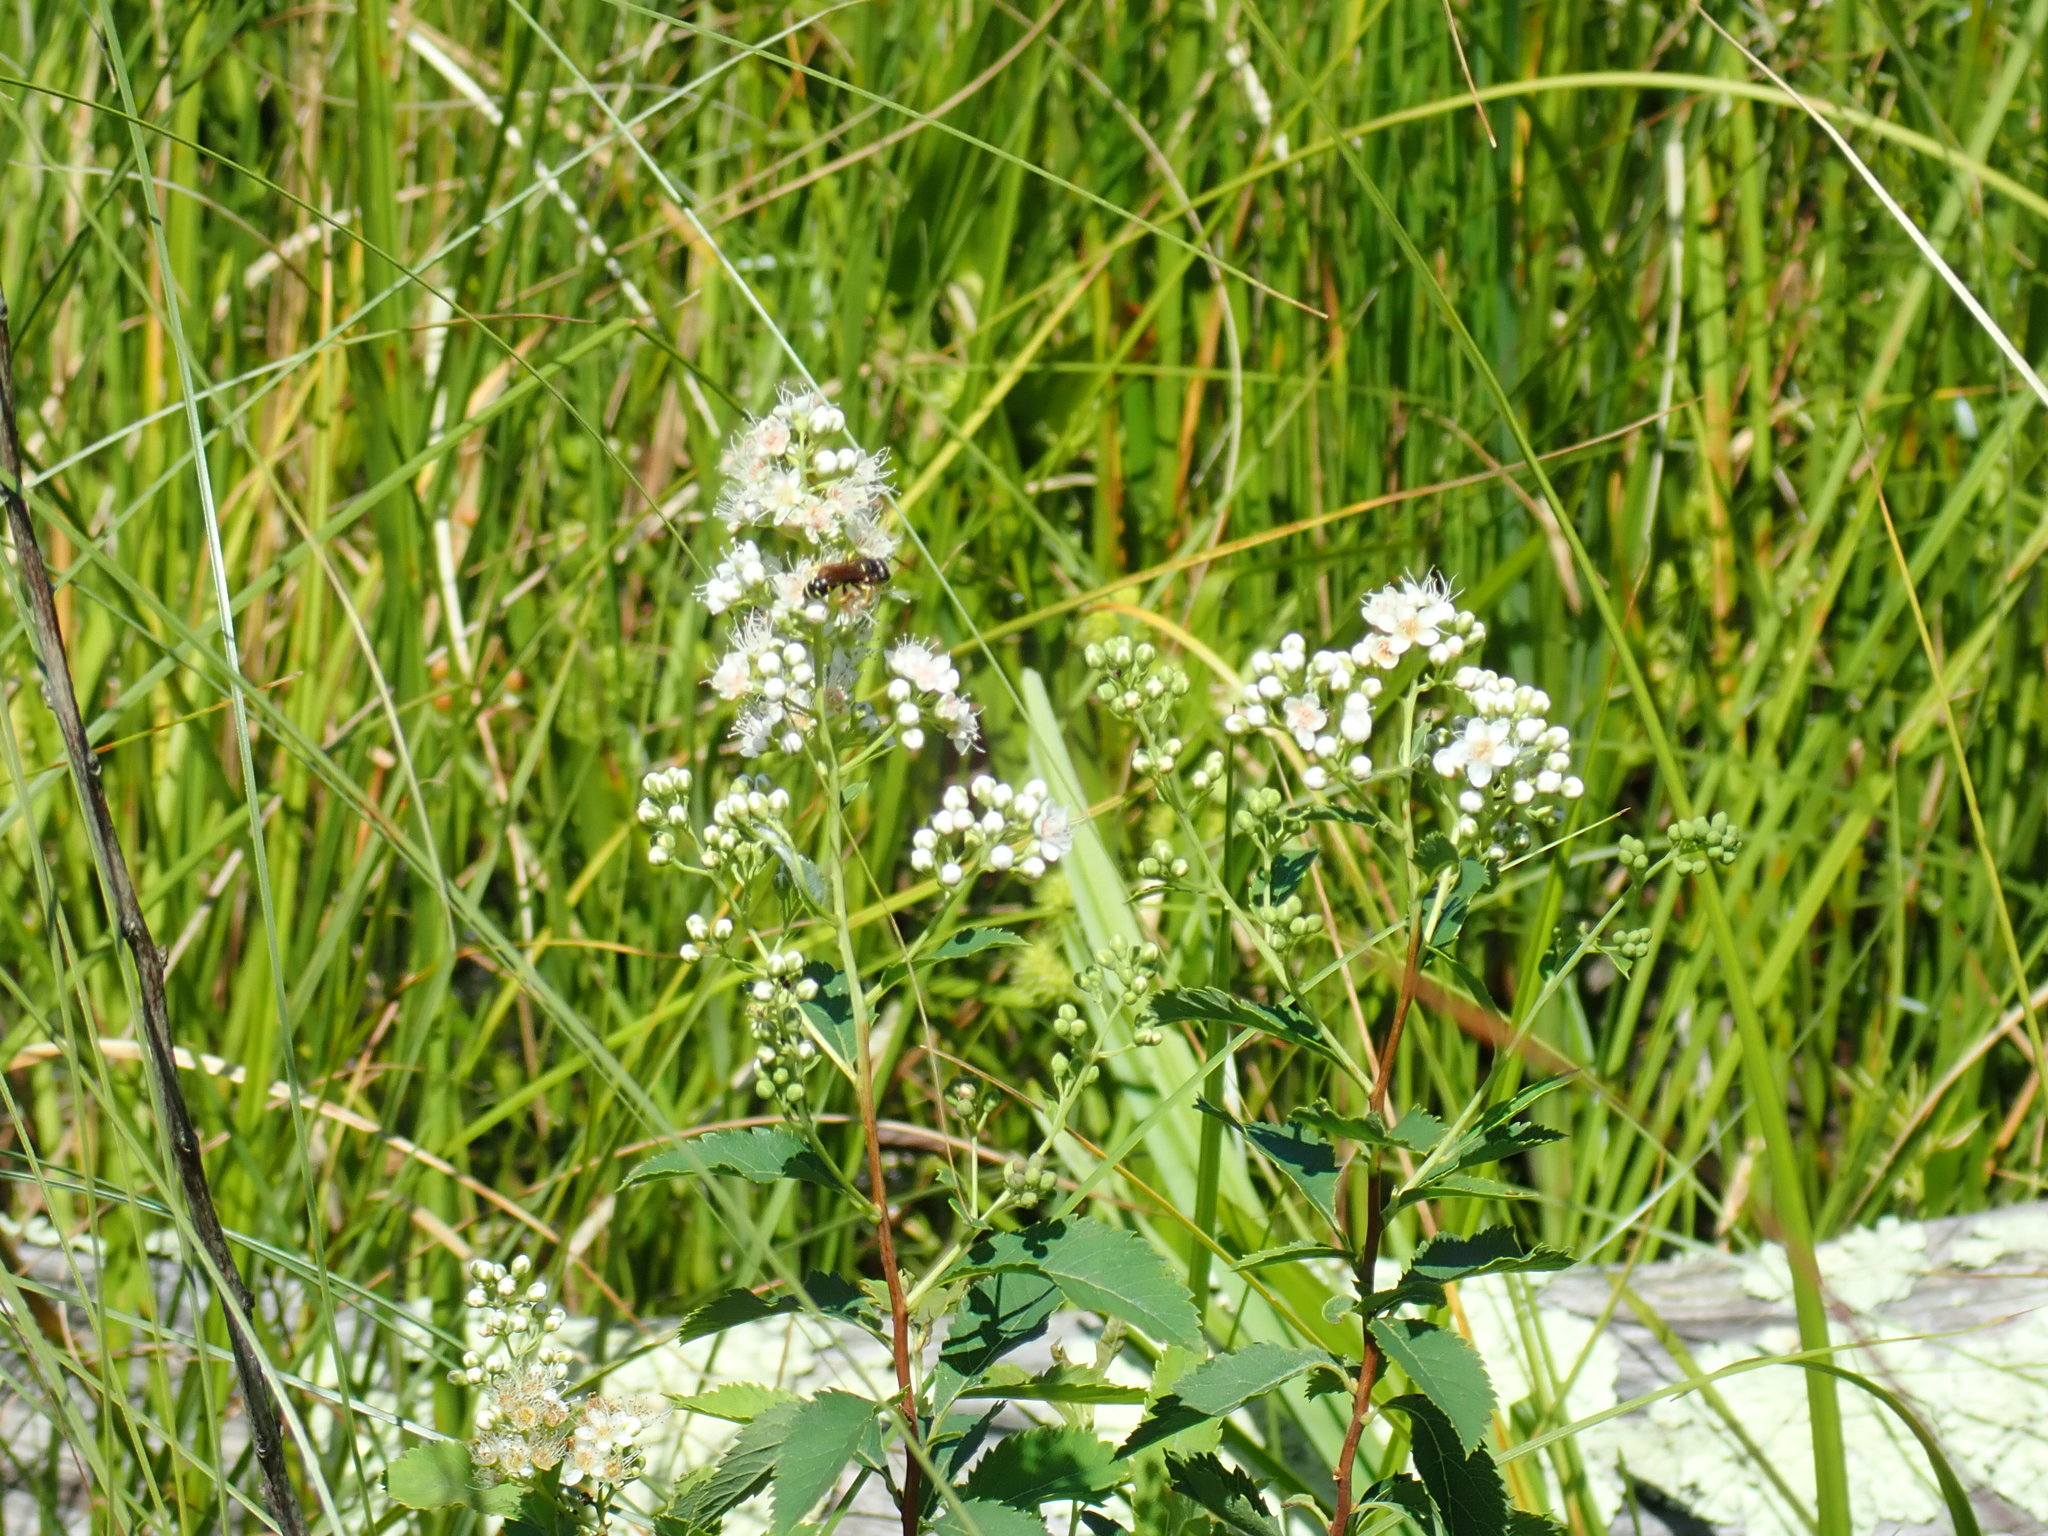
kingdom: Plantae
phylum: Tracheophyta
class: Magnoliopsida
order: Rosales
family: Rosaceae
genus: Spiraea
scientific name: Spiraea alba
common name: Pale bridewort
